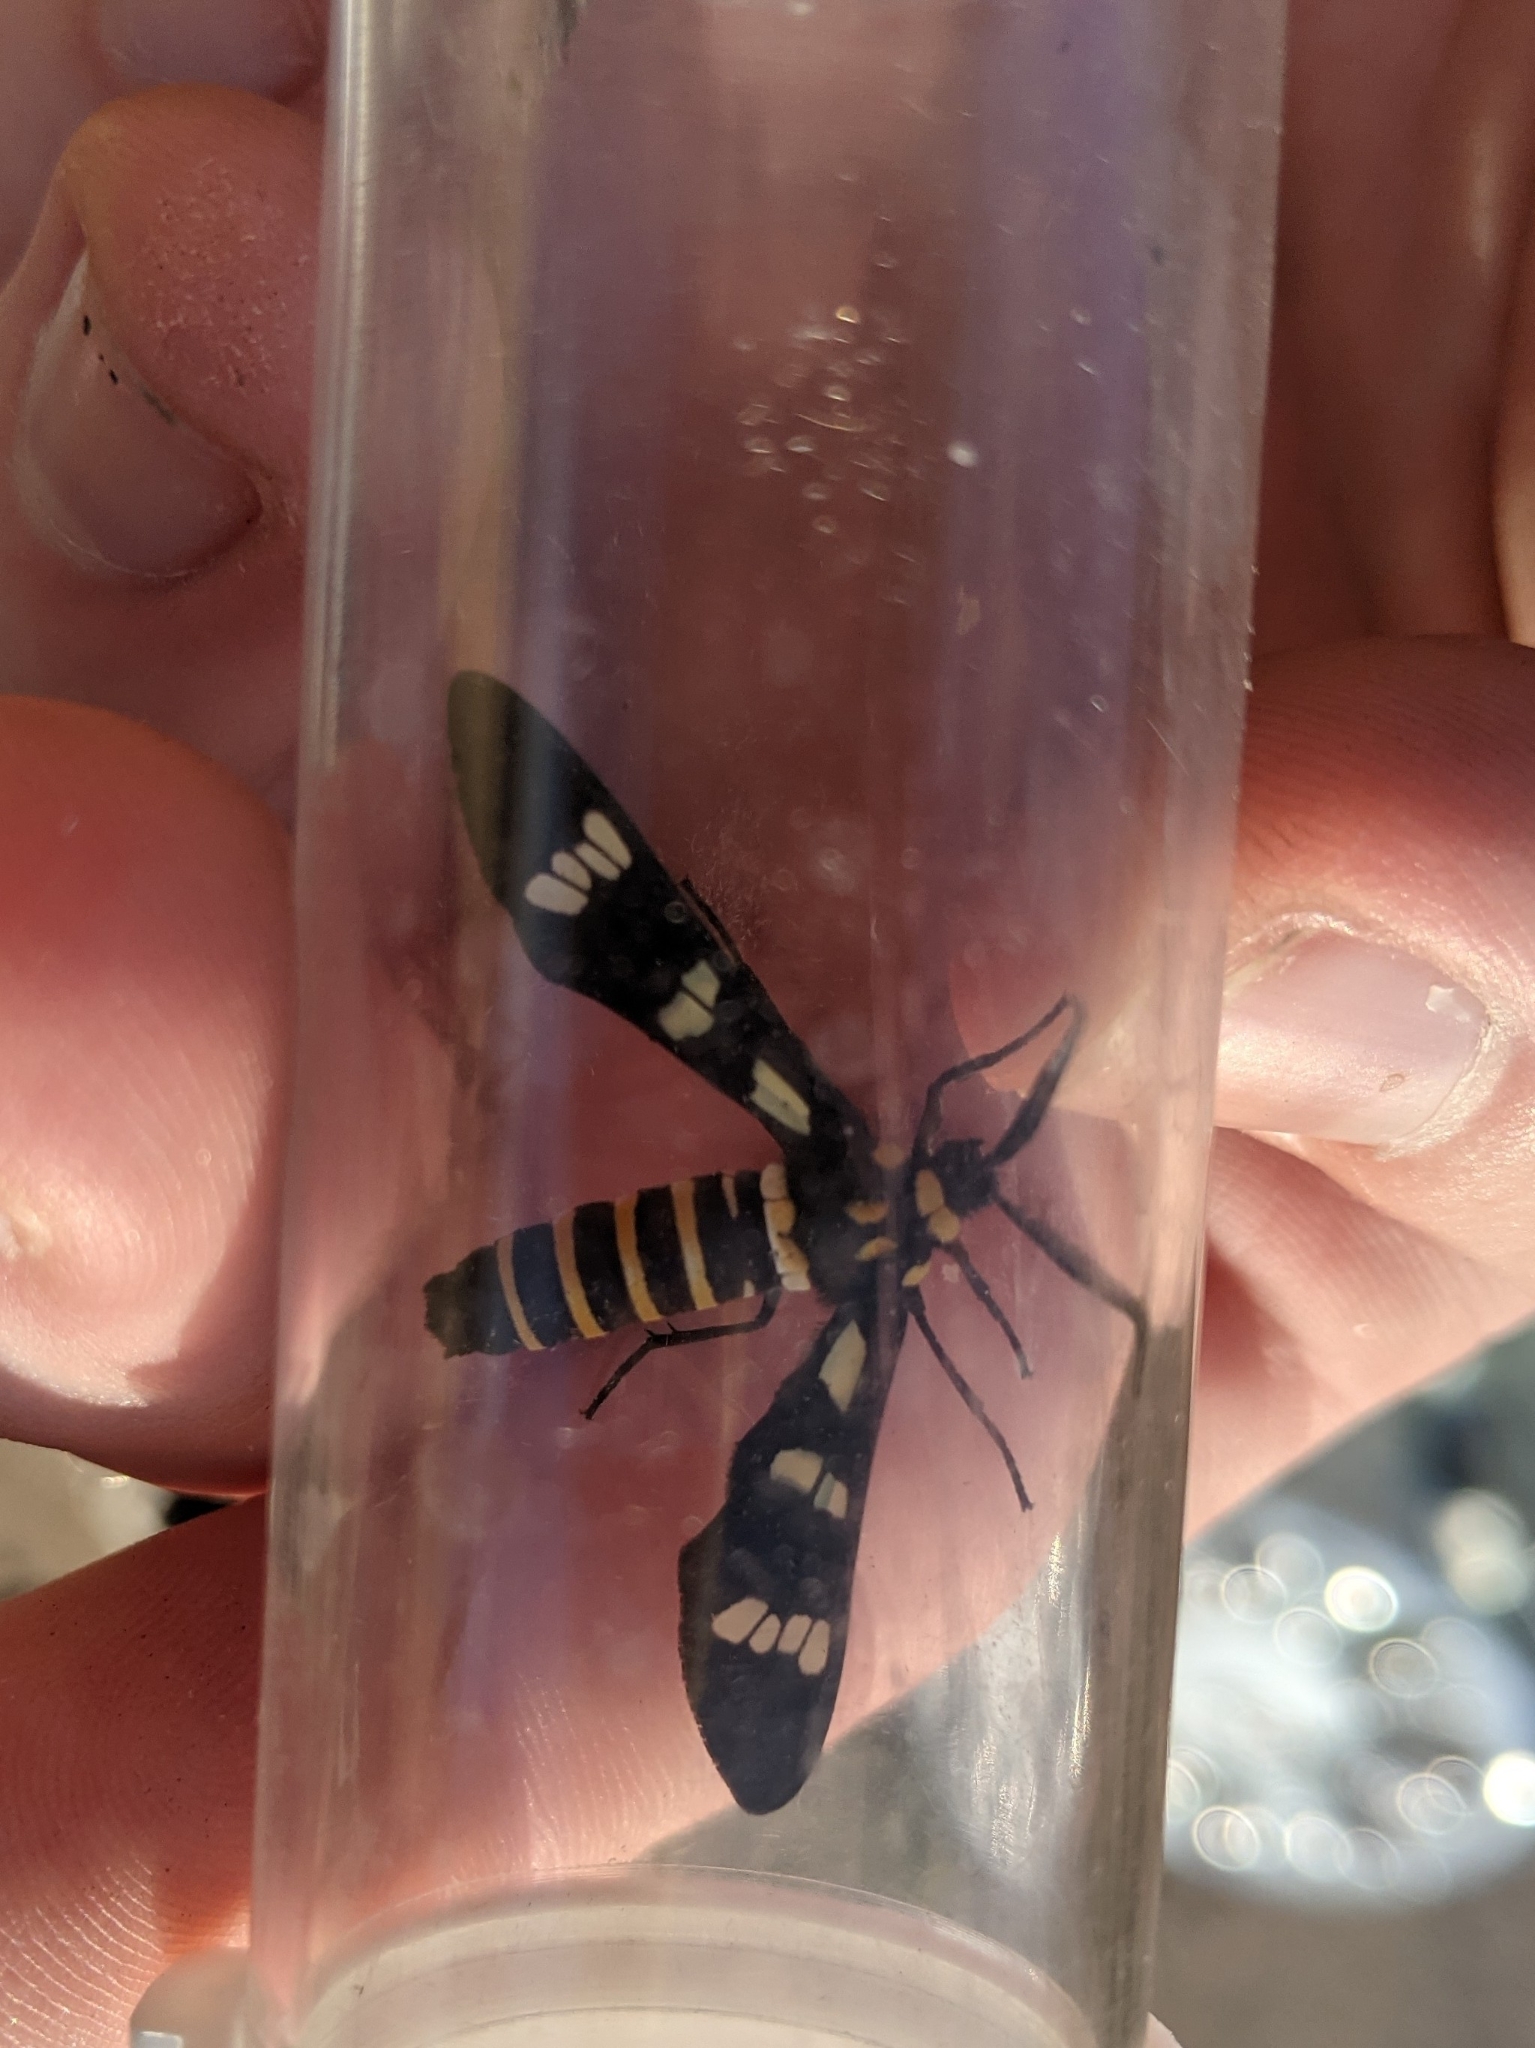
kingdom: Animalia
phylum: Arthropoda
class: Insecta
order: Lepidoptera
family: Erebidae
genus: Syntomeida
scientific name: Syntomeida melanthus
